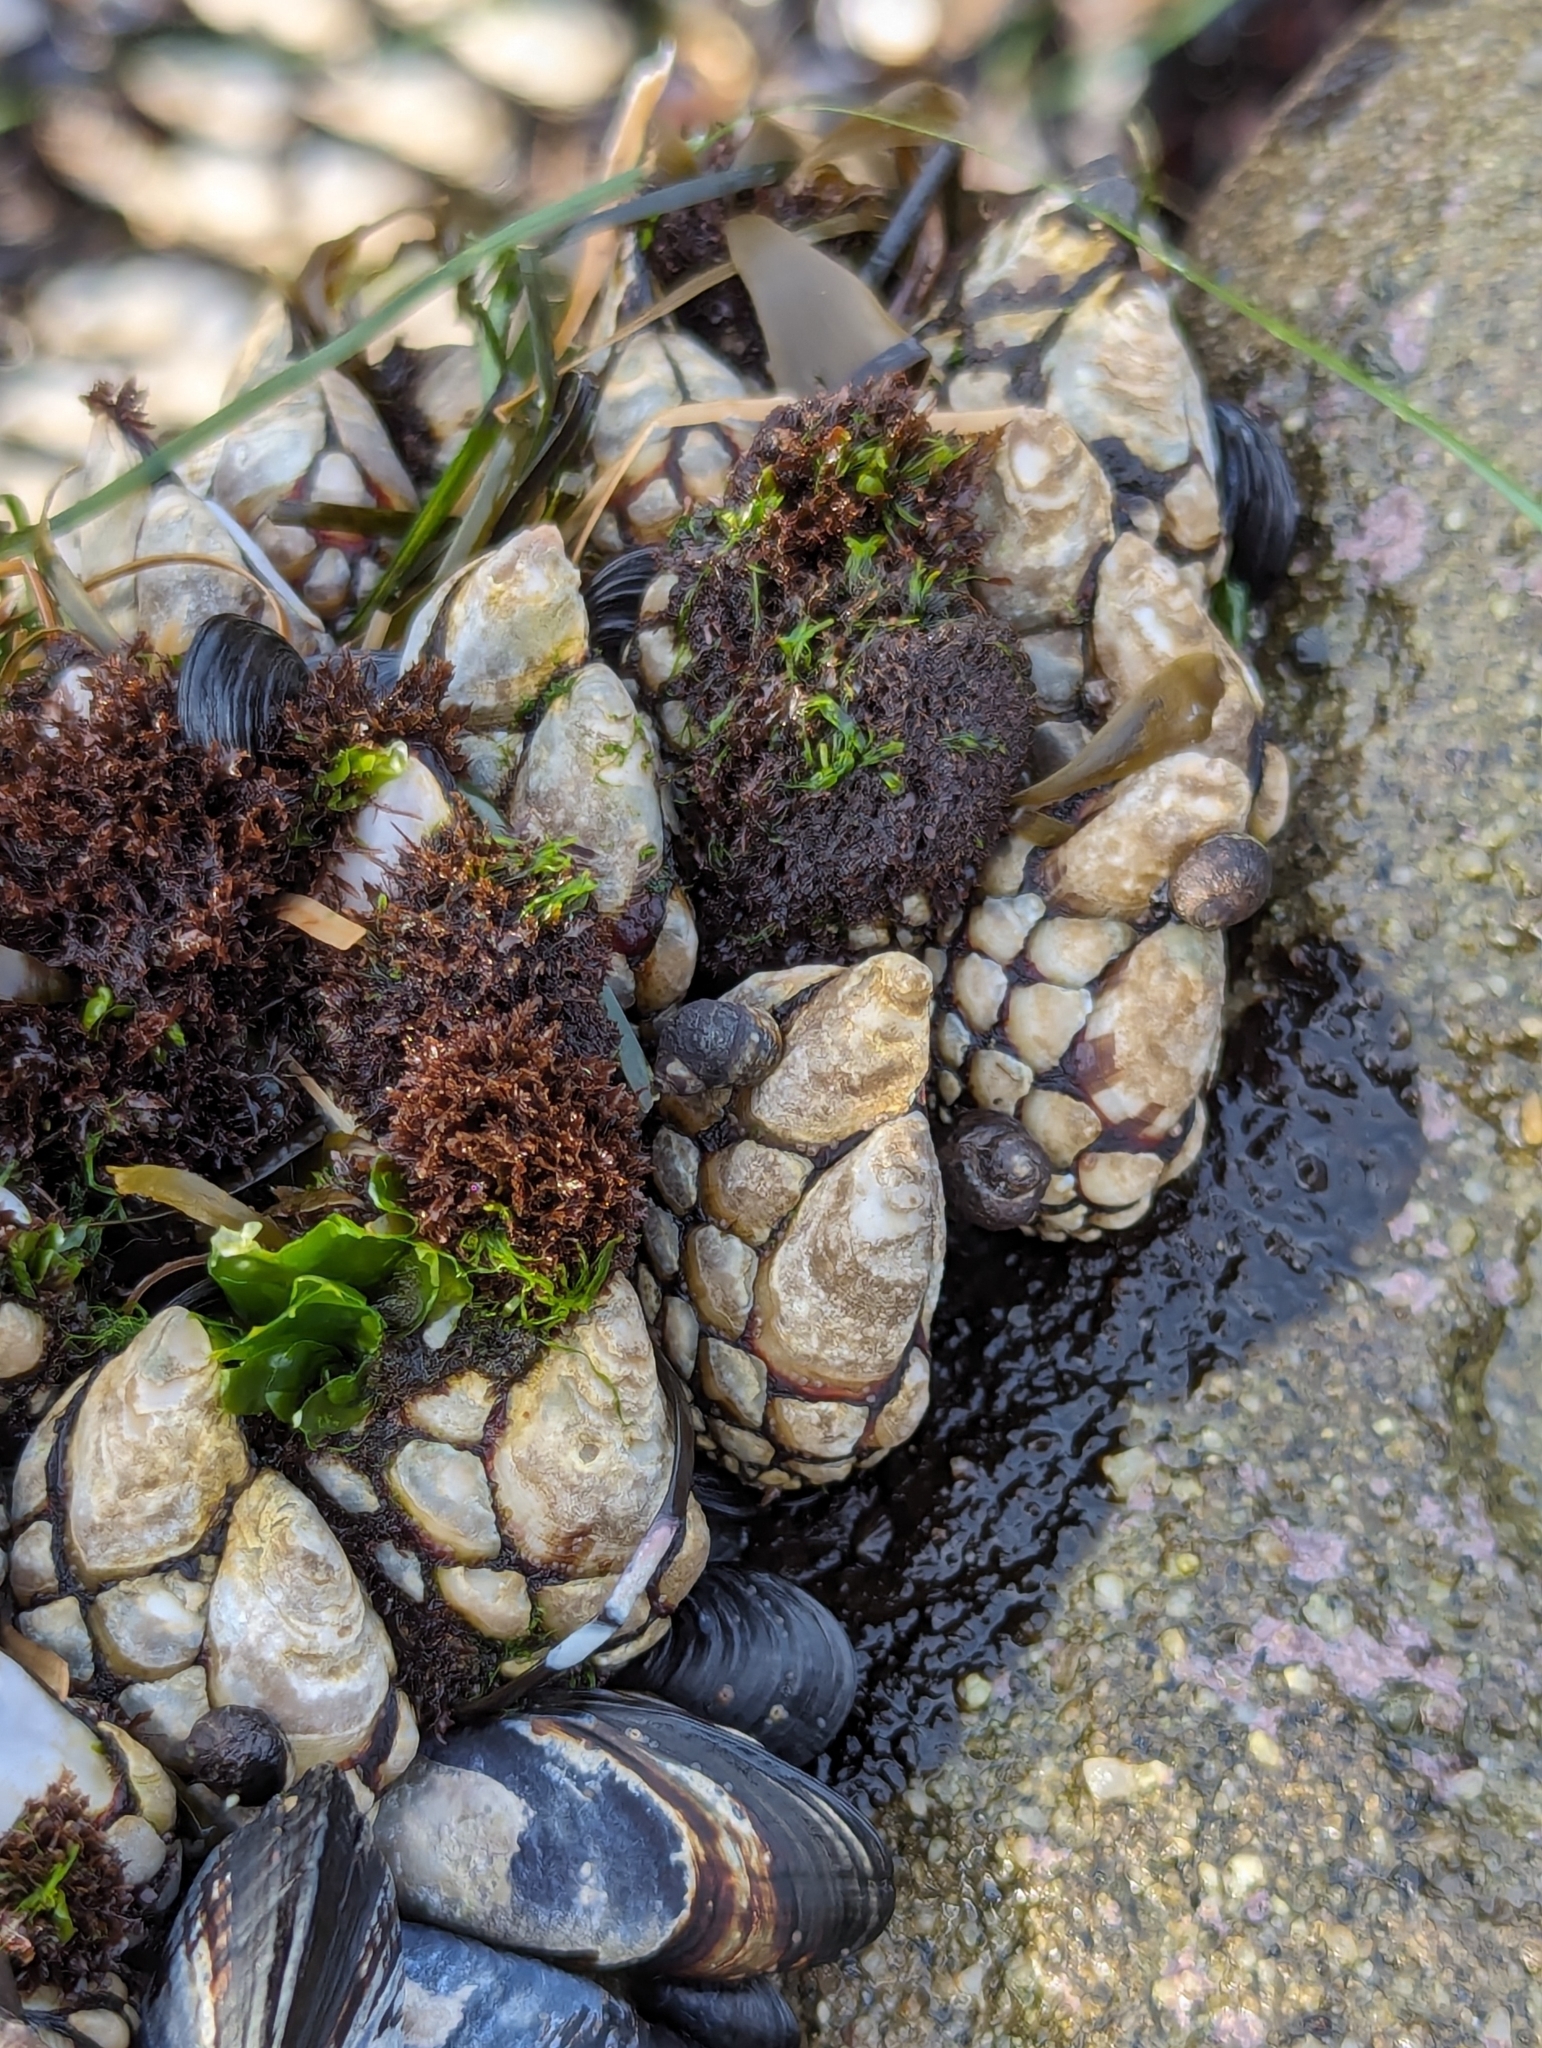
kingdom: Animalia
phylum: Arthropoda
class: Maxillopoda
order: Pedunculata
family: Pollicipedidae
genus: Pollicipes
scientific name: Pollicipes polymerus
